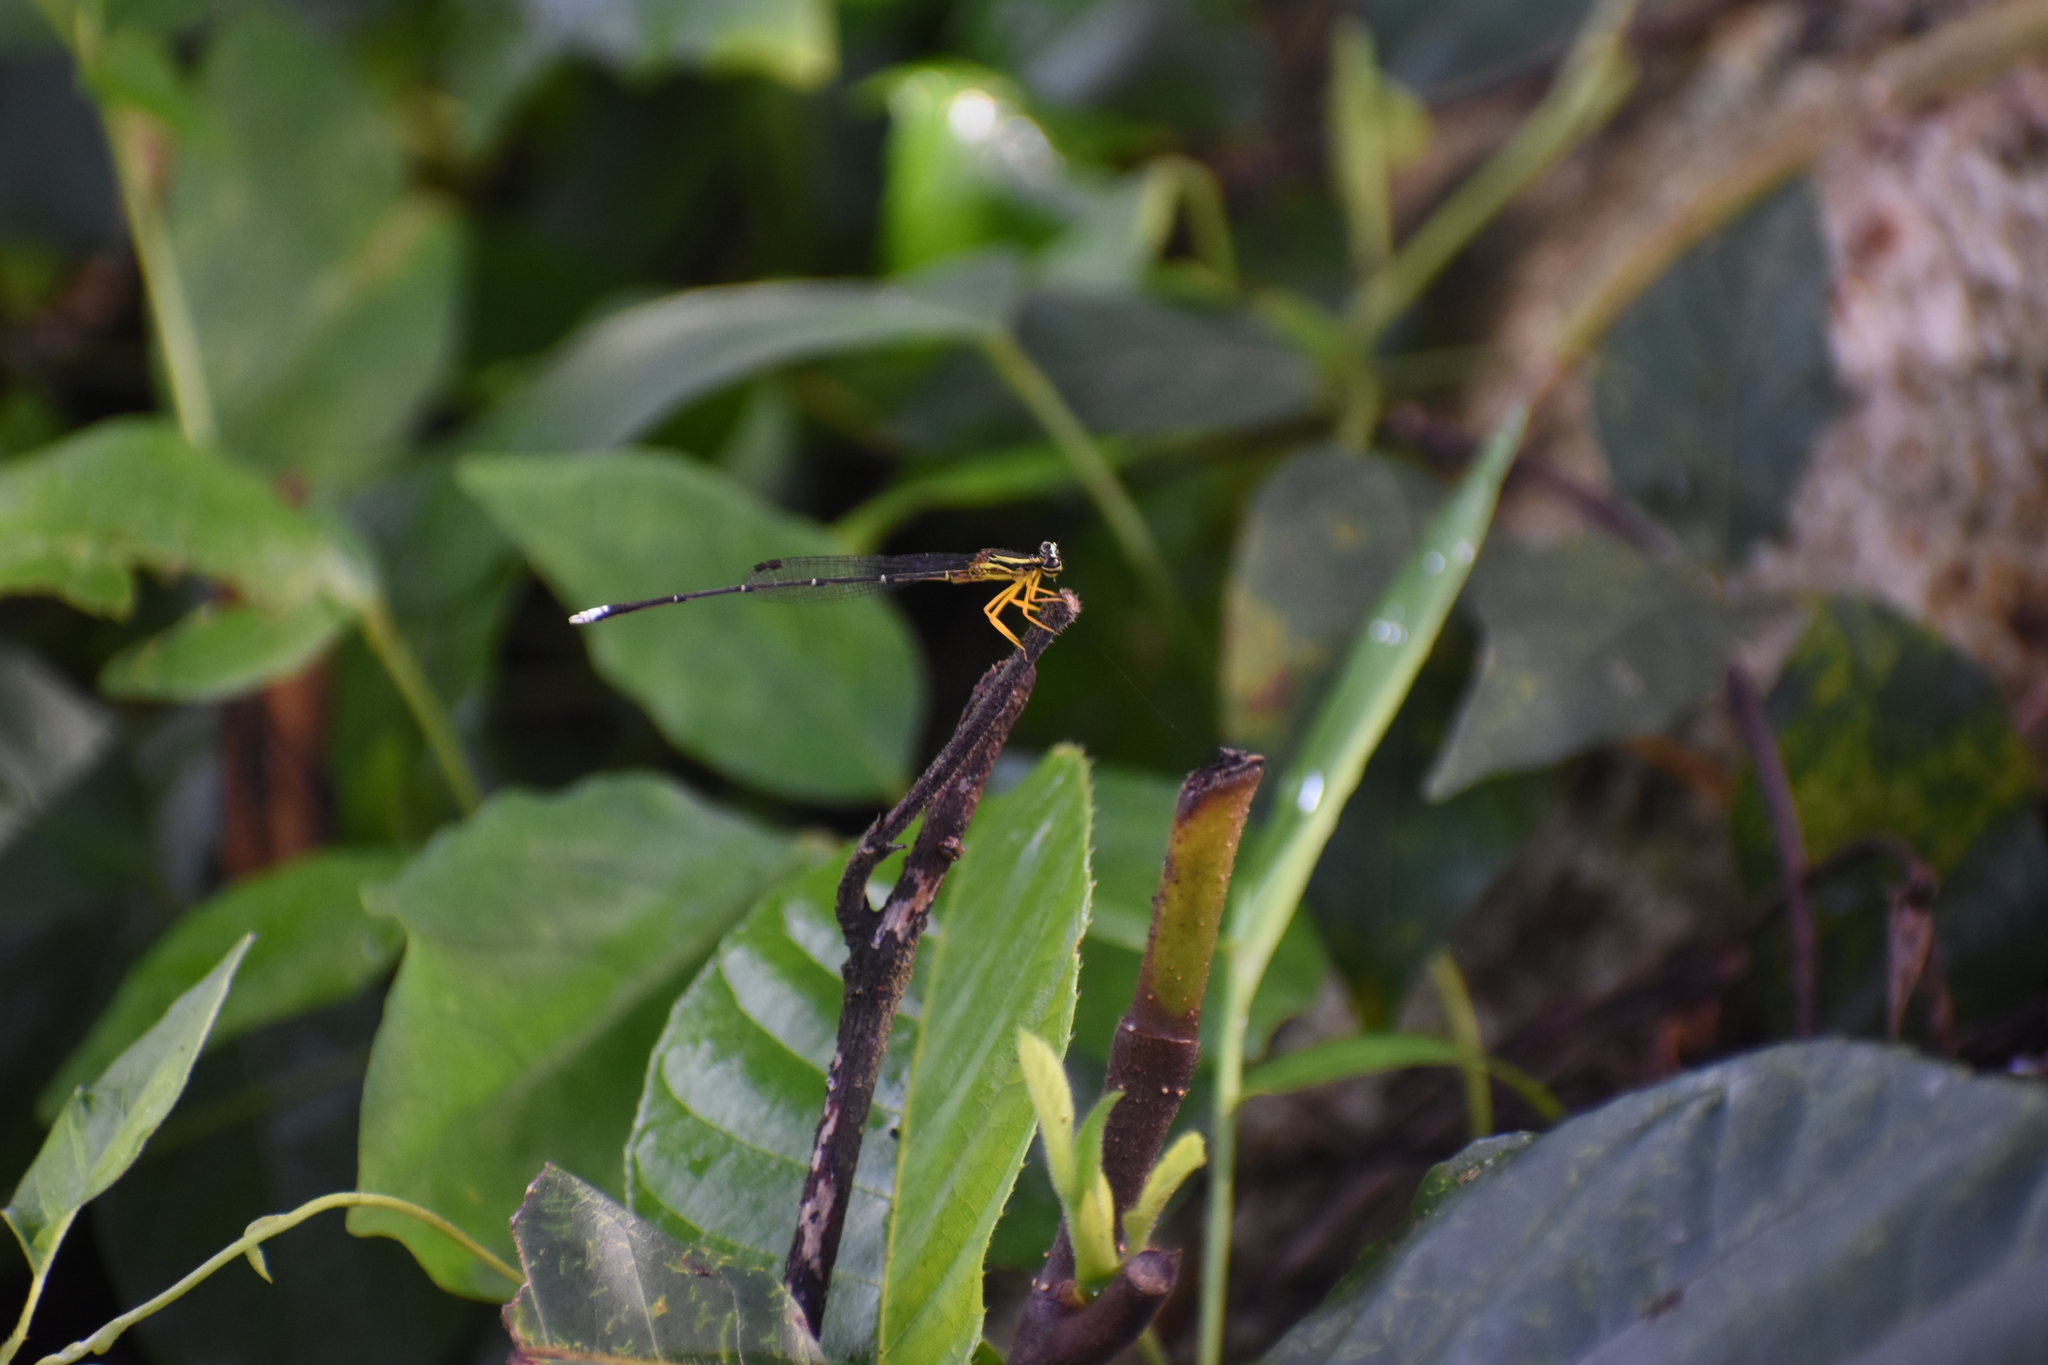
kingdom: Animalia
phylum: Arthropoda
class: Insecta
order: Odonata
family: Platycnemididae
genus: Copera
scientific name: Copera marginipes
